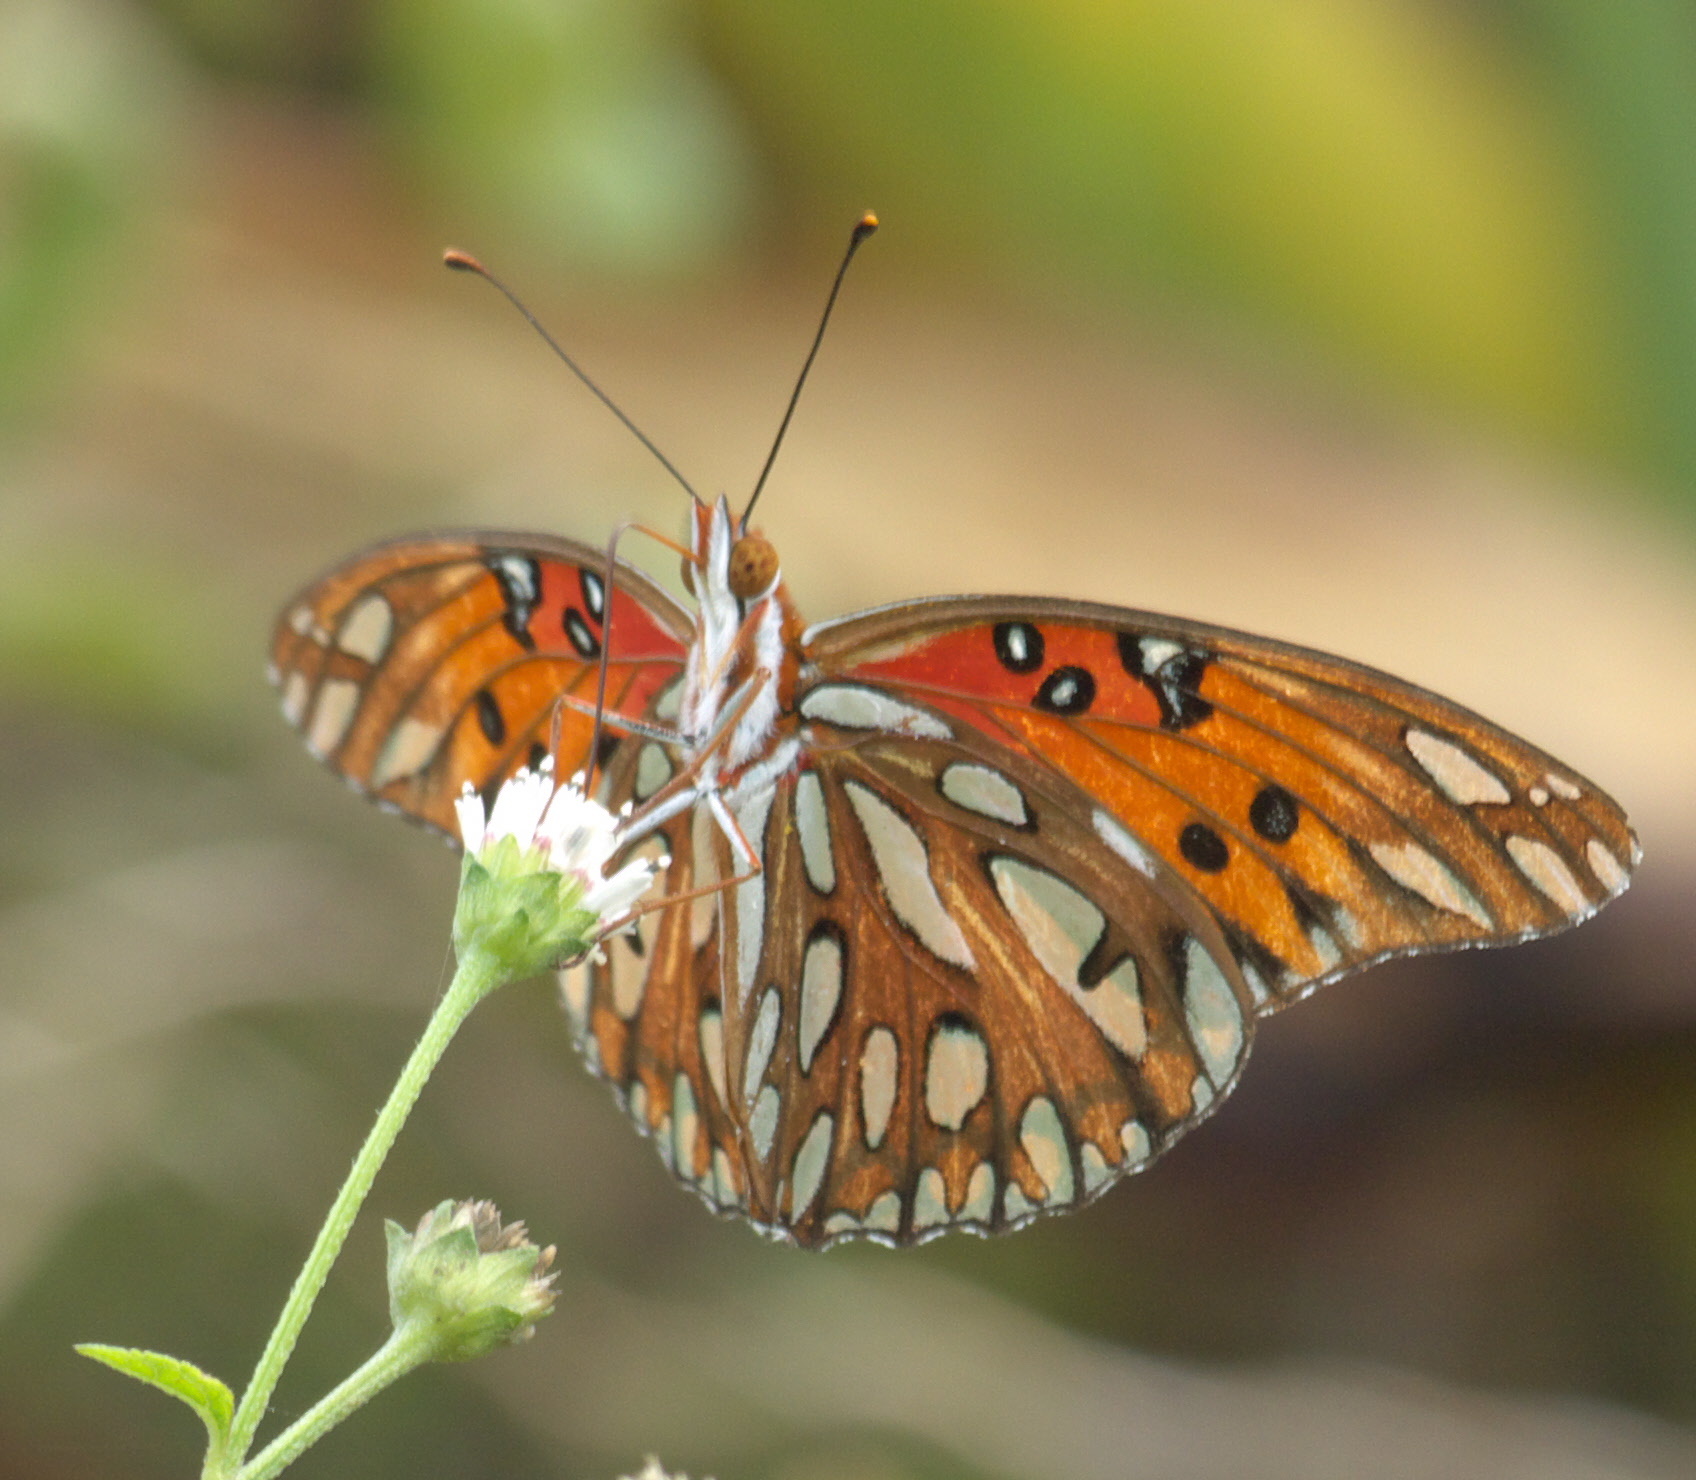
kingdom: Animalia
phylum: Arthropoda
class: Insecta
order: Lepidoptera
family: Nymphalidae
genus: Dione
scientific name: Dione vanillae
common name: Gulf fritillary
